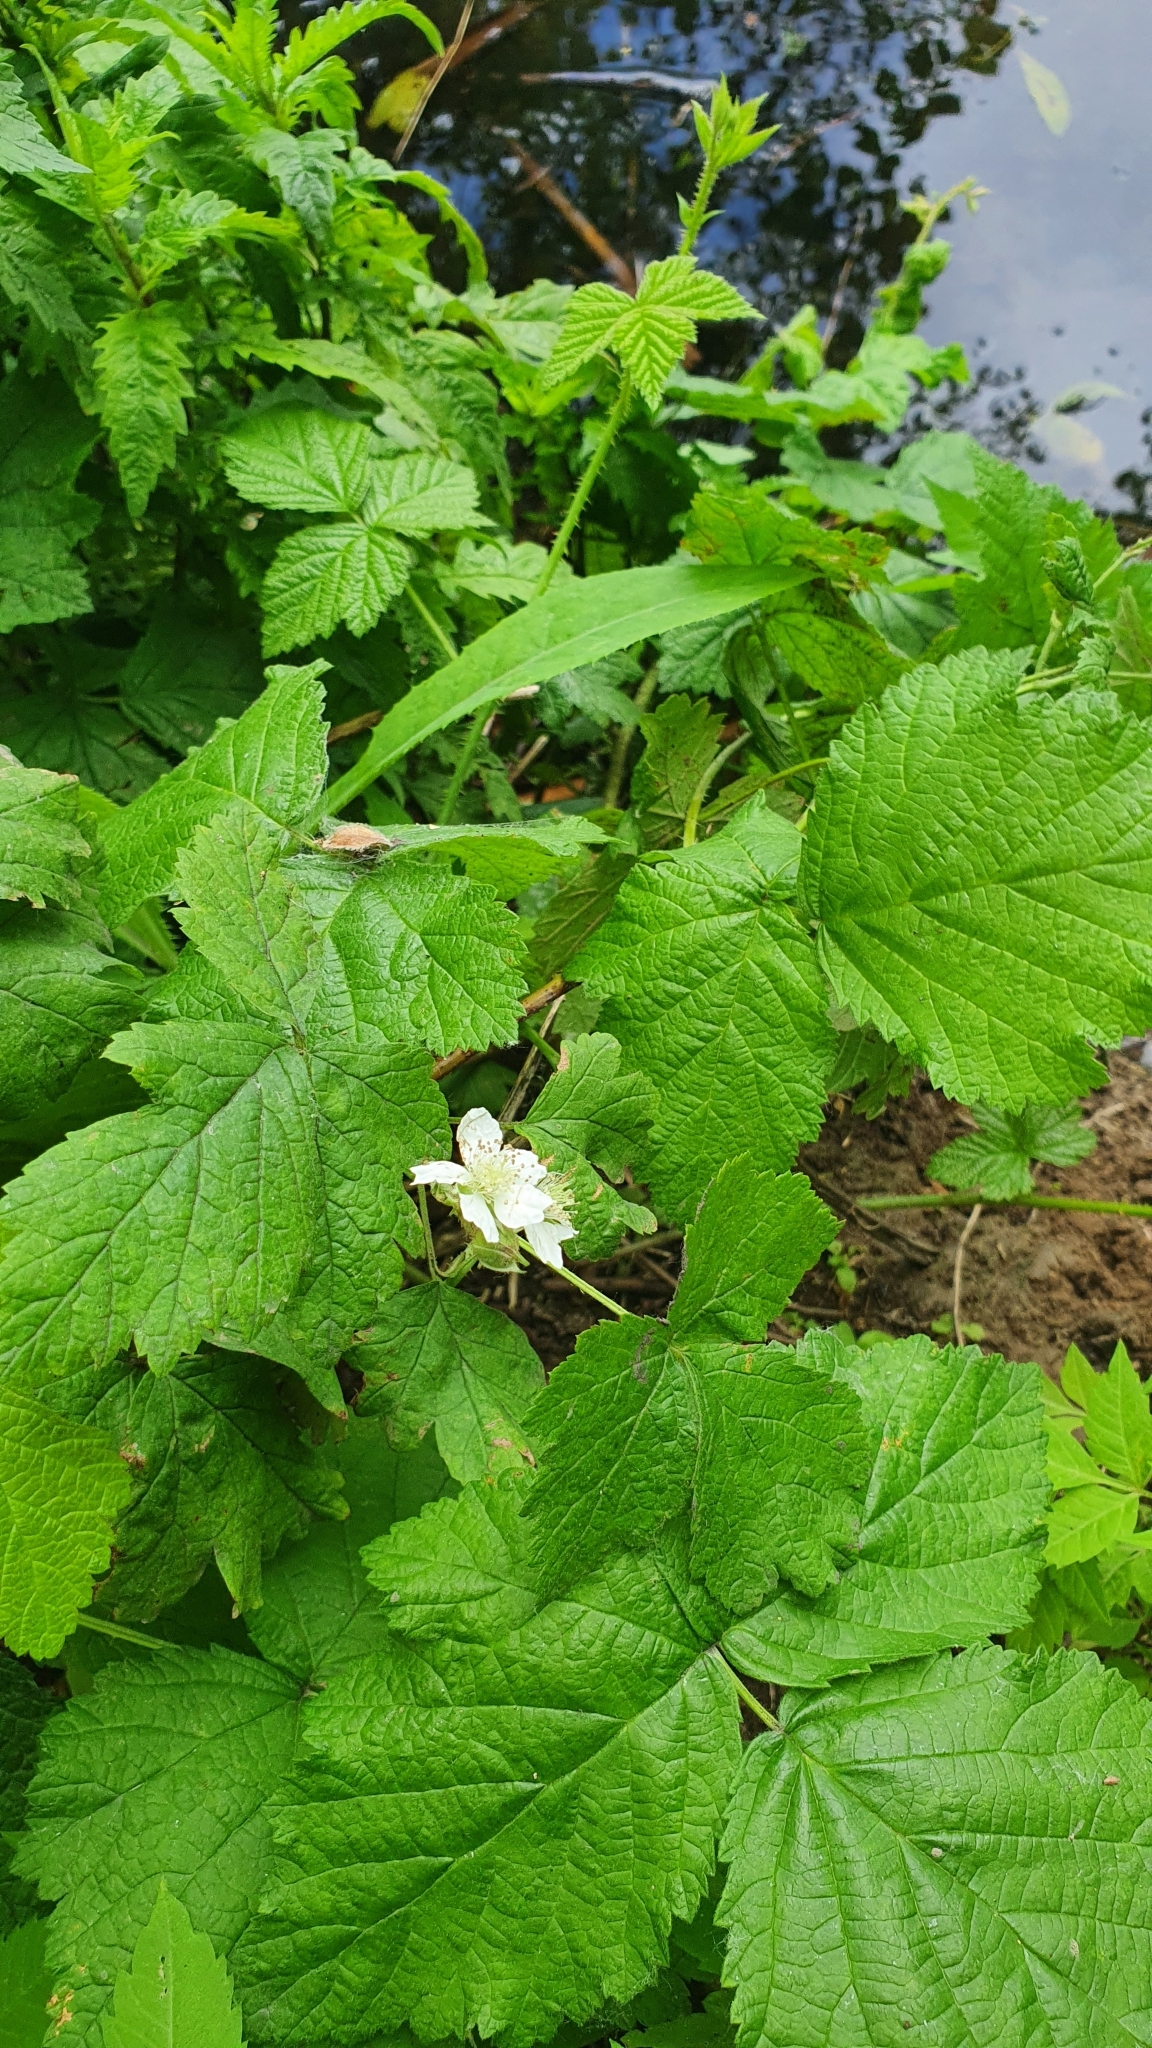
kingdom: Plantae
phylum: Tracheophyta
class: Magnoliopsida
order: Rosales
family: Rosaceae
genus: Rubus
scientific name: Rubus caesius
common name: Dewberry
